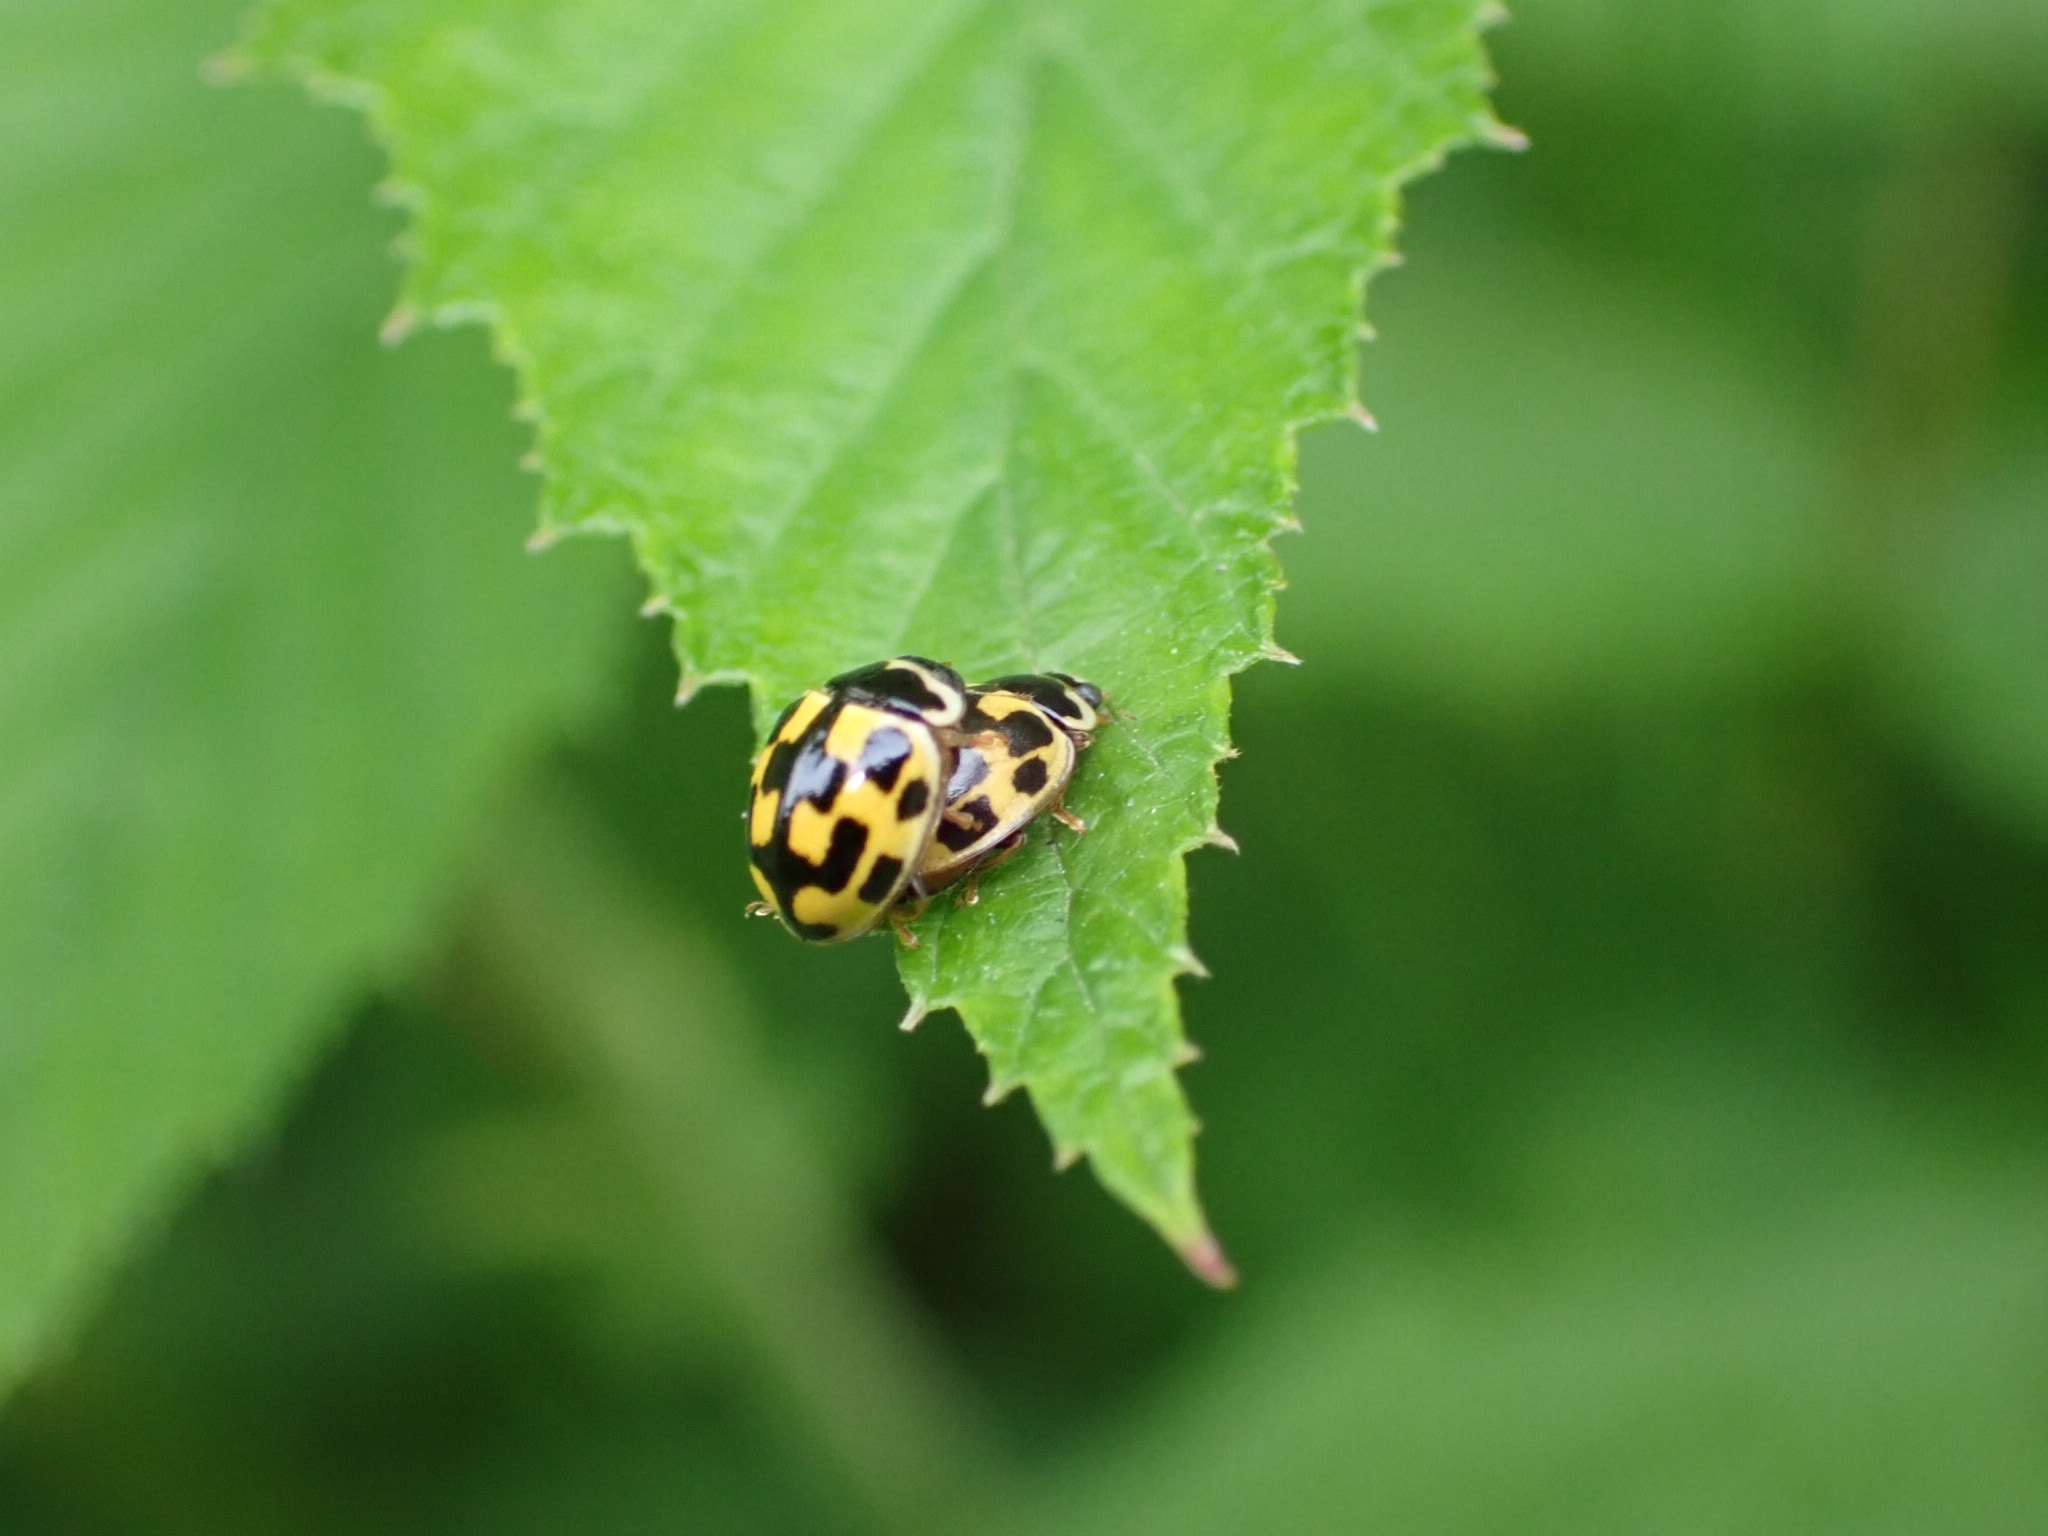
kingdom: Animalia
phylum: Arthropoda
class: Insecta
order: Coleoptera
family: Coccinellidae
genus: Propylaea
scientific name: Propylaea quatuordecimpunctata
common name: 14-spotted ladybird beetle
